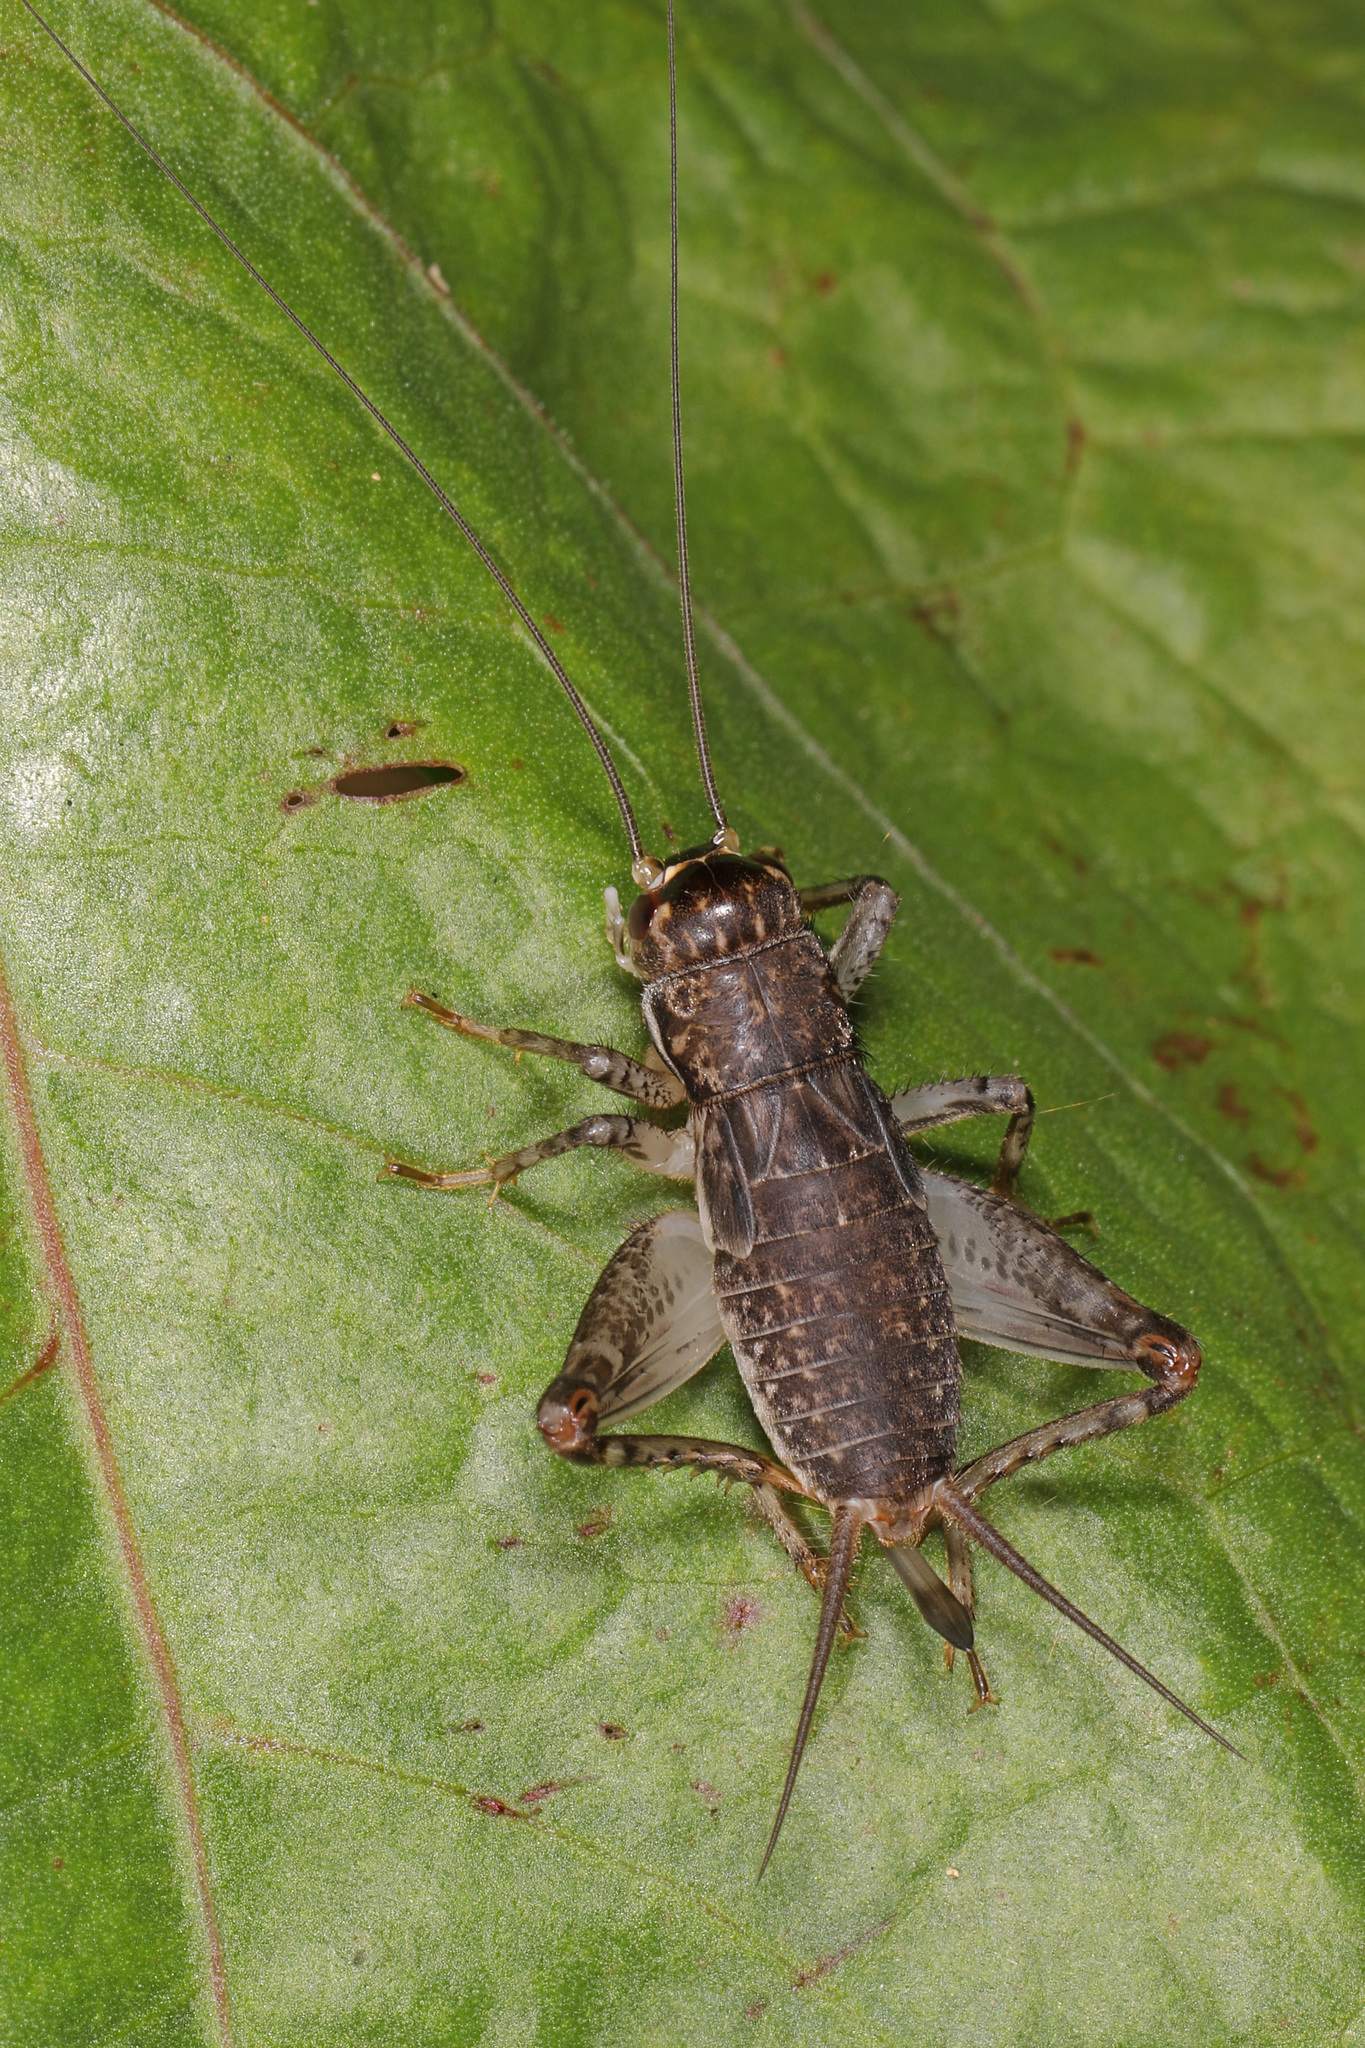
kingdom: Animalia
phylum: Arthropoda
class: Insecta
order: Orthoptera
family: Gryllidae
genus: Velarifictorus
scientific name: Velarifictorus micado
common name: Japanese burrowing cricket
